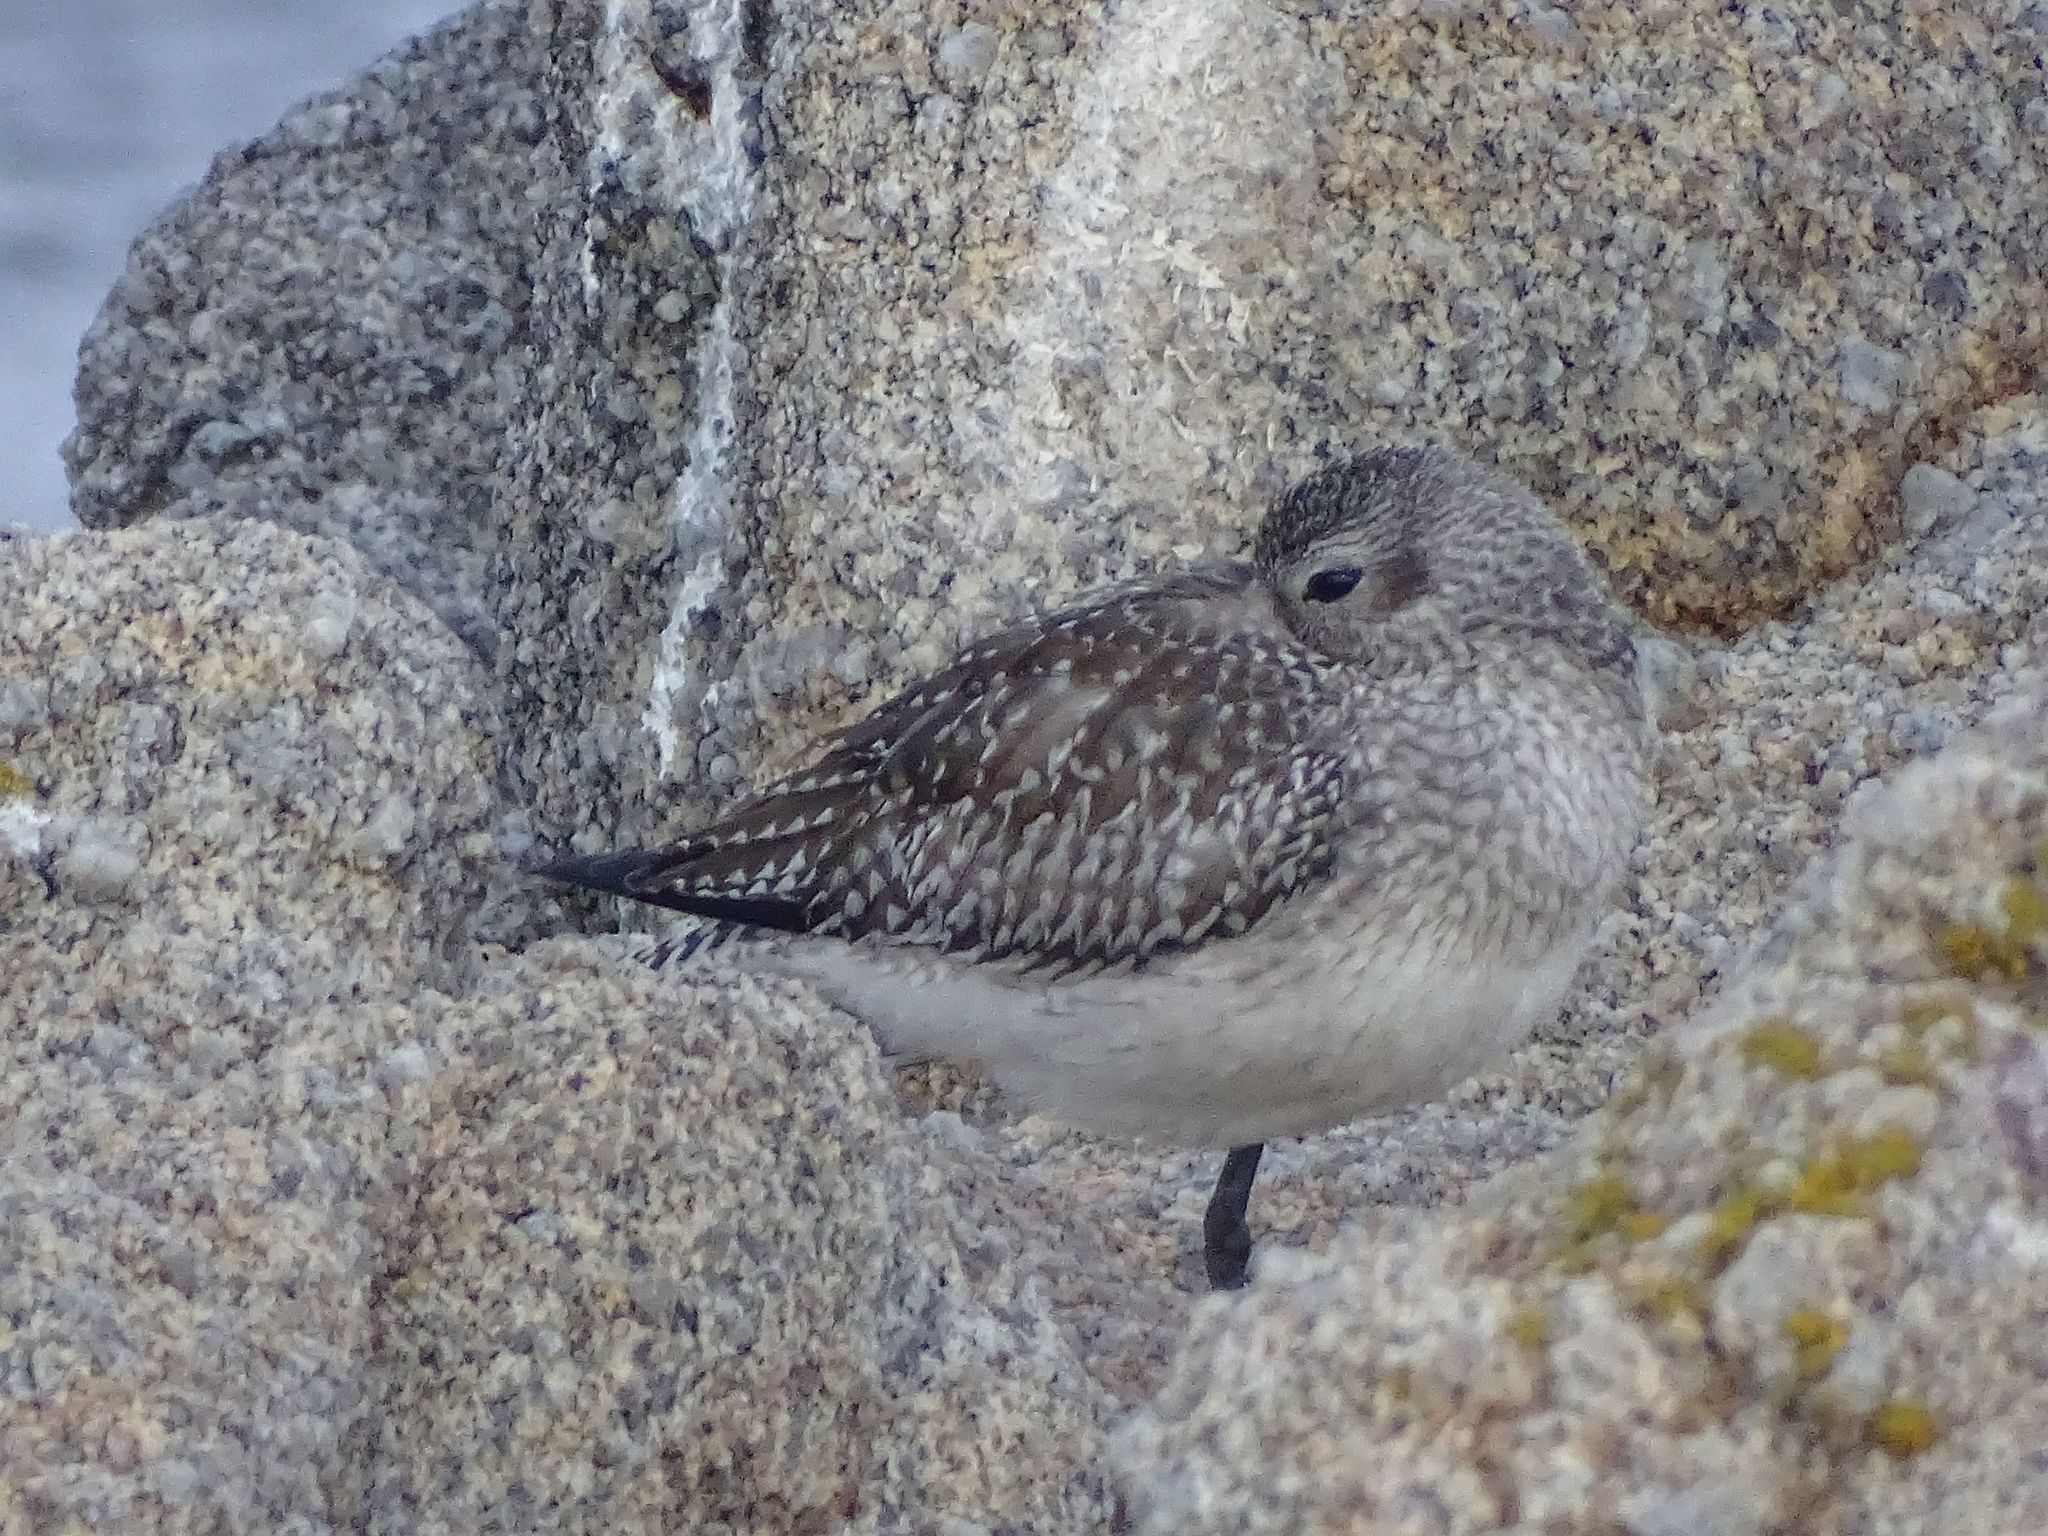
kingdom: Animalia
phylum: Chordata
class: Aves
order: Charadriiformes
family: Charadriidae
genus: Pluvialis
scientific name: Pluvialis squatarola
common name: Grey plover
